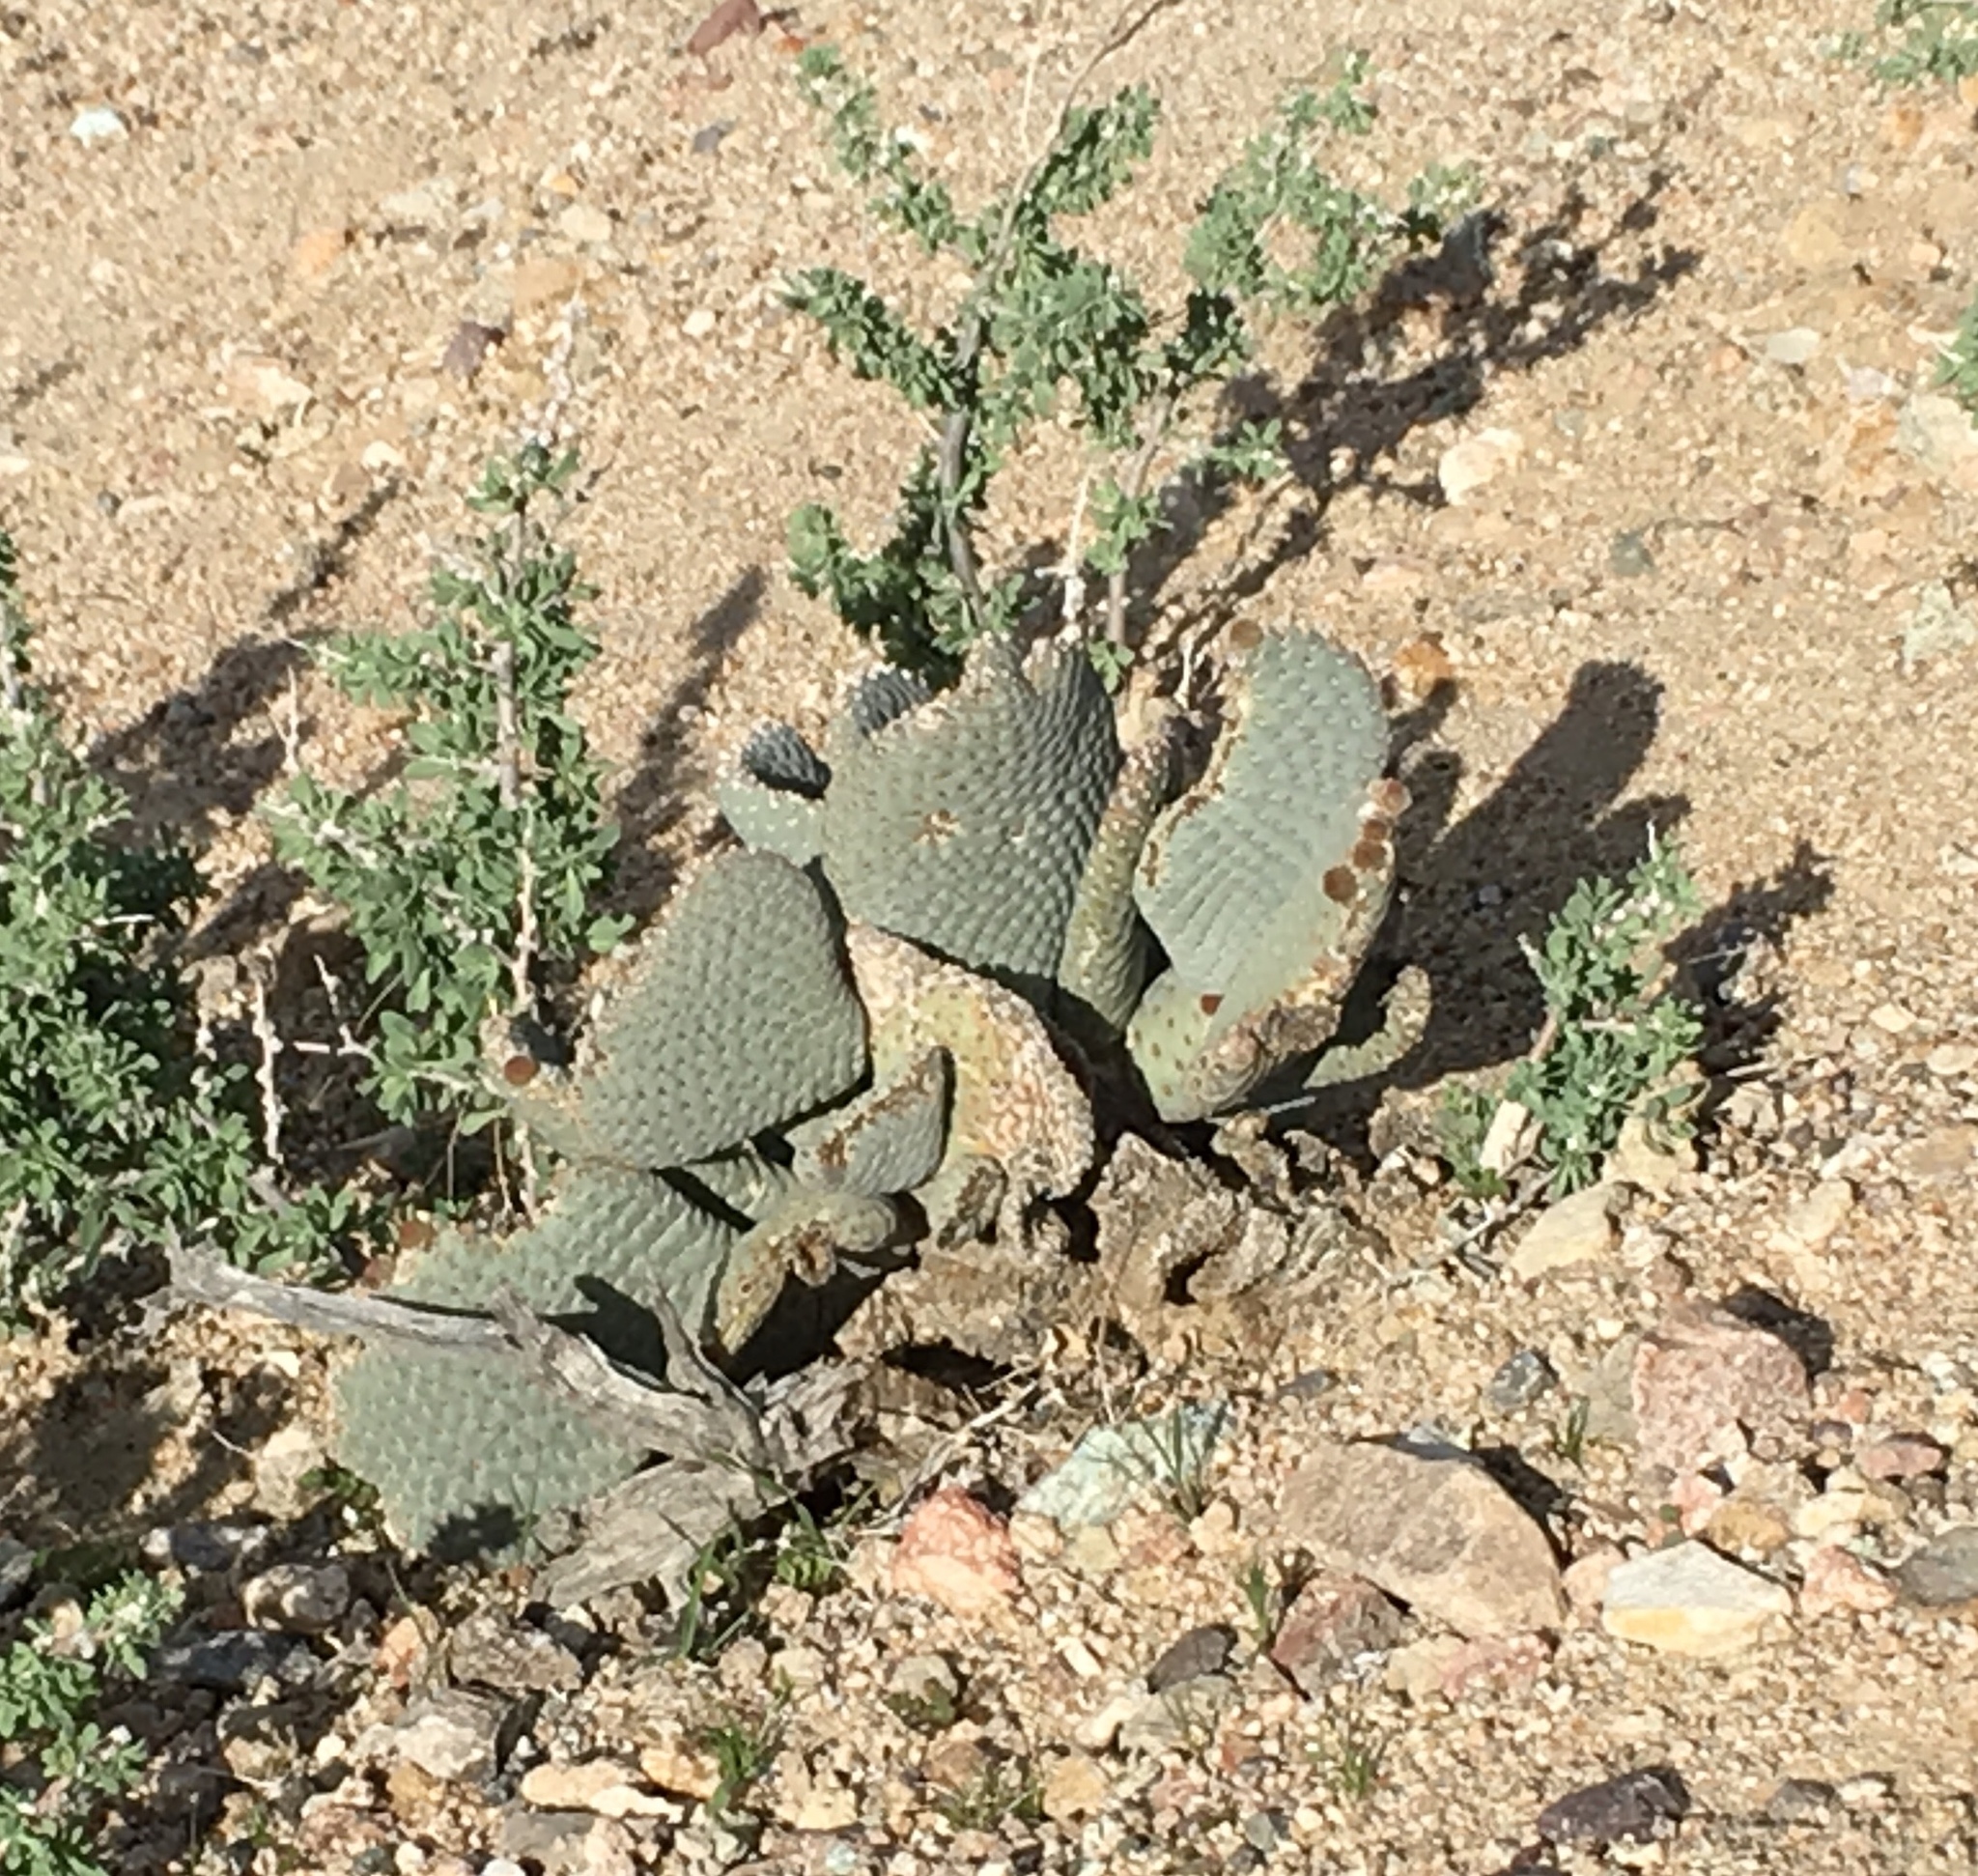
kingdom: Plantae
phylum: Tracheophyta
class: Magnoliopsida
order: Caryophyllales
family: Cactaceae
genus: Opuntia
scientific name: Opuntia basilaris
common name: Beavertail prickly-pear
